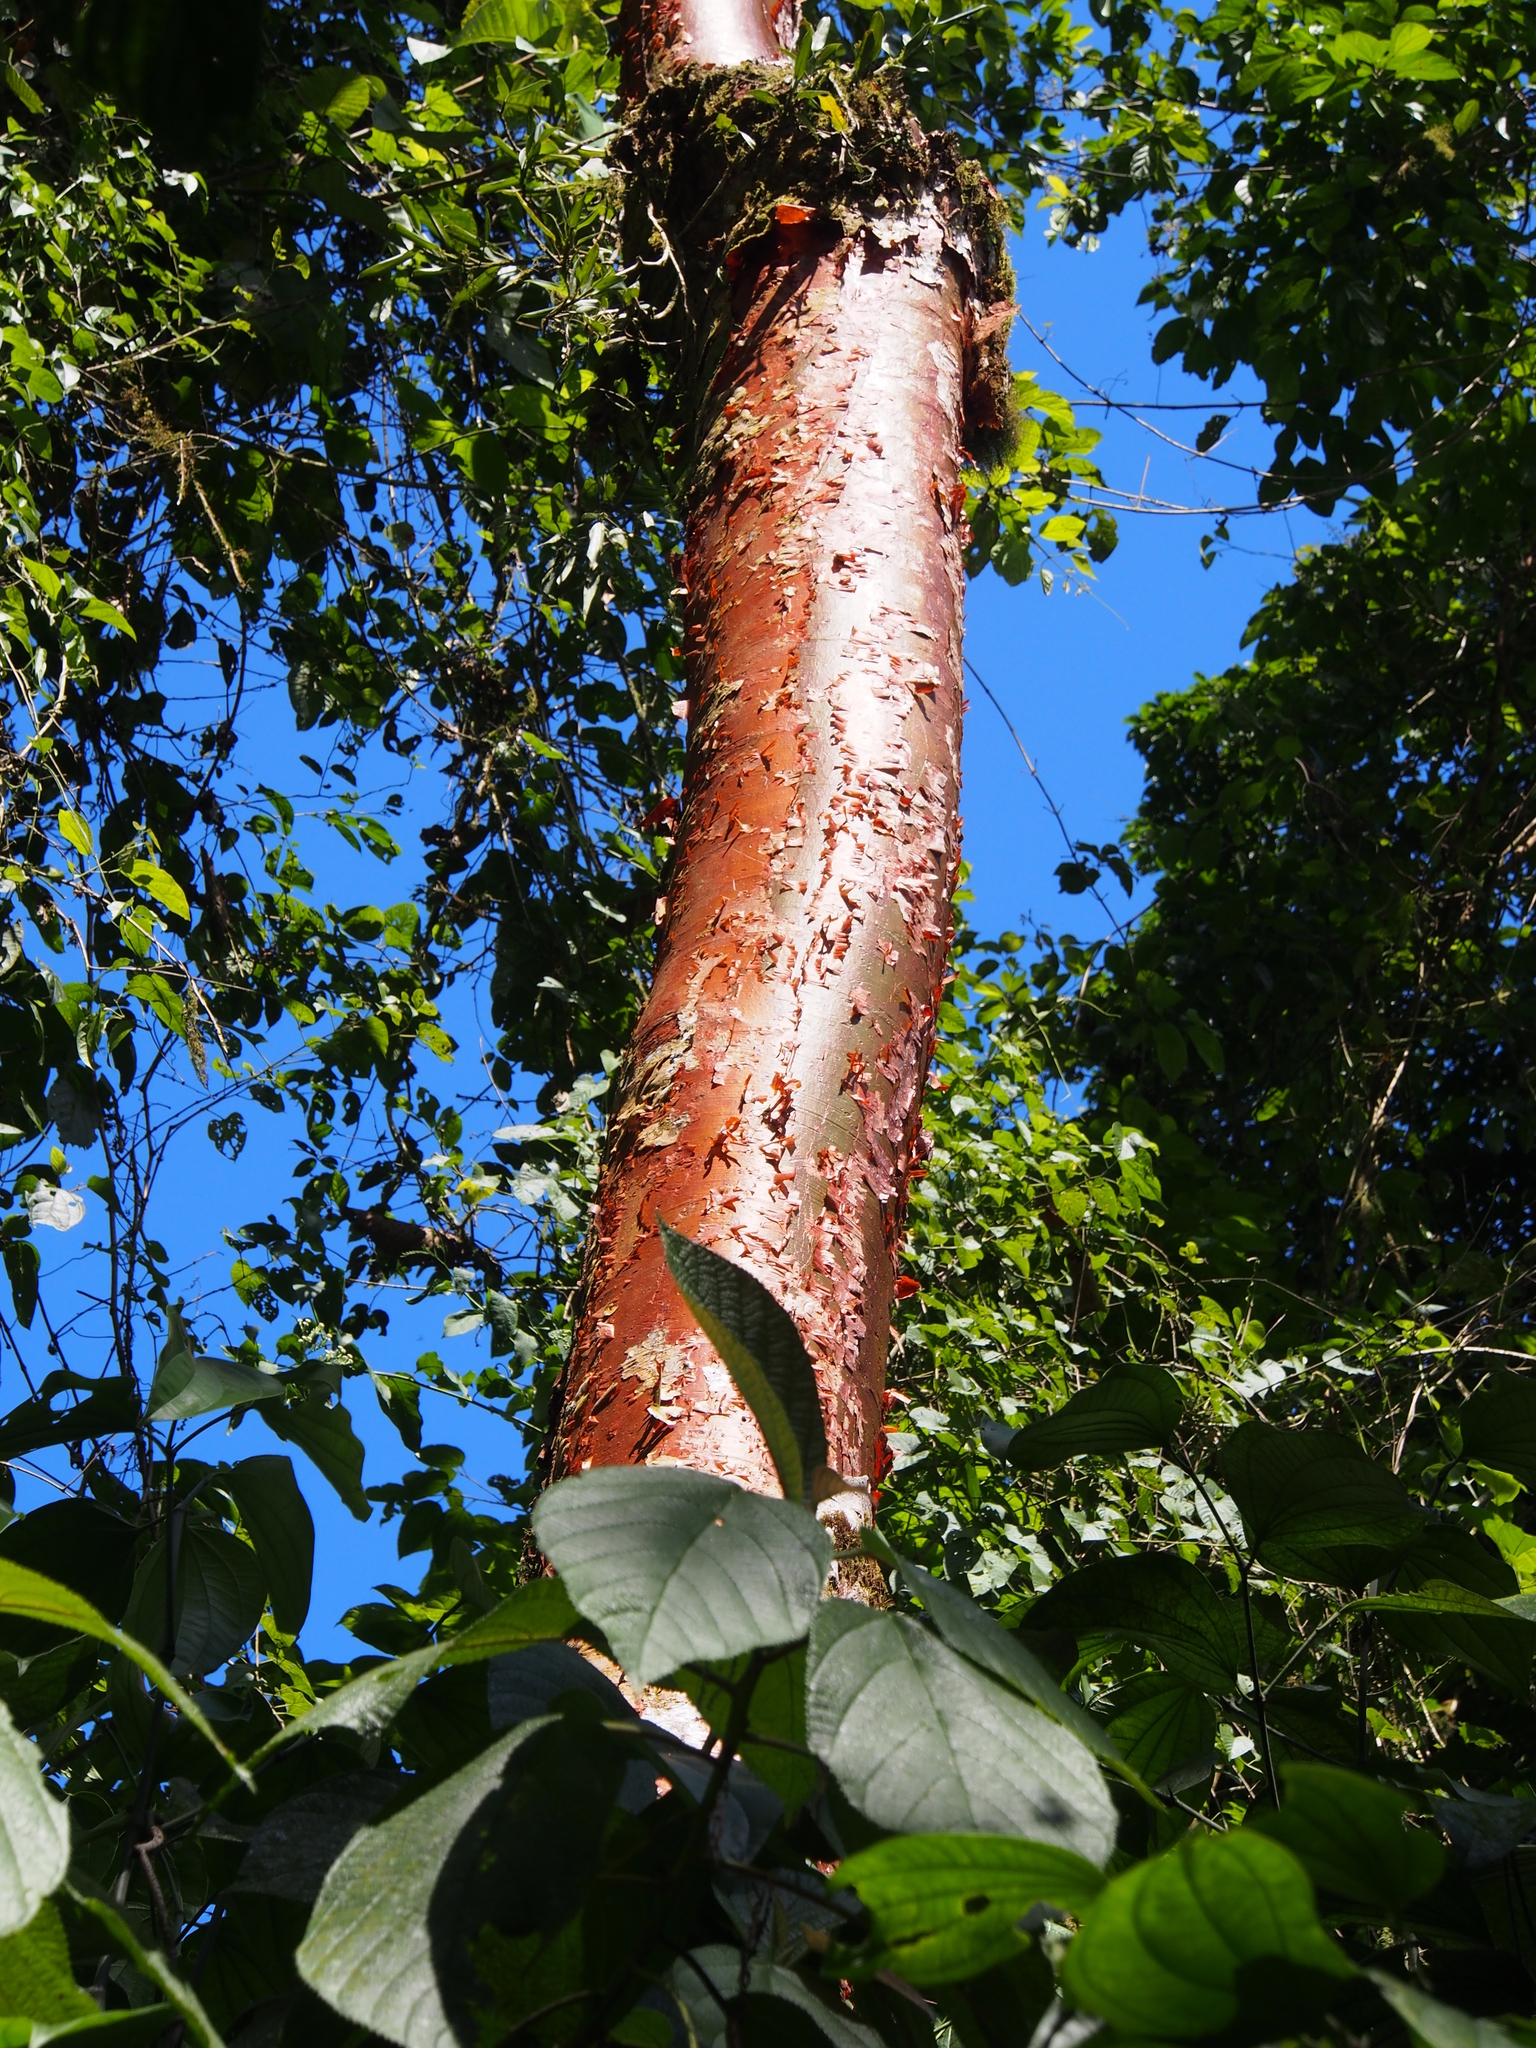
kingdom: Plantae
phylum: Tracheophyta
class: Magnoliopsida
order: Sapindales
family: Burseraceae
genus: Bursera
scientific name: Bursera simaruba
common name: Turpentine tree
